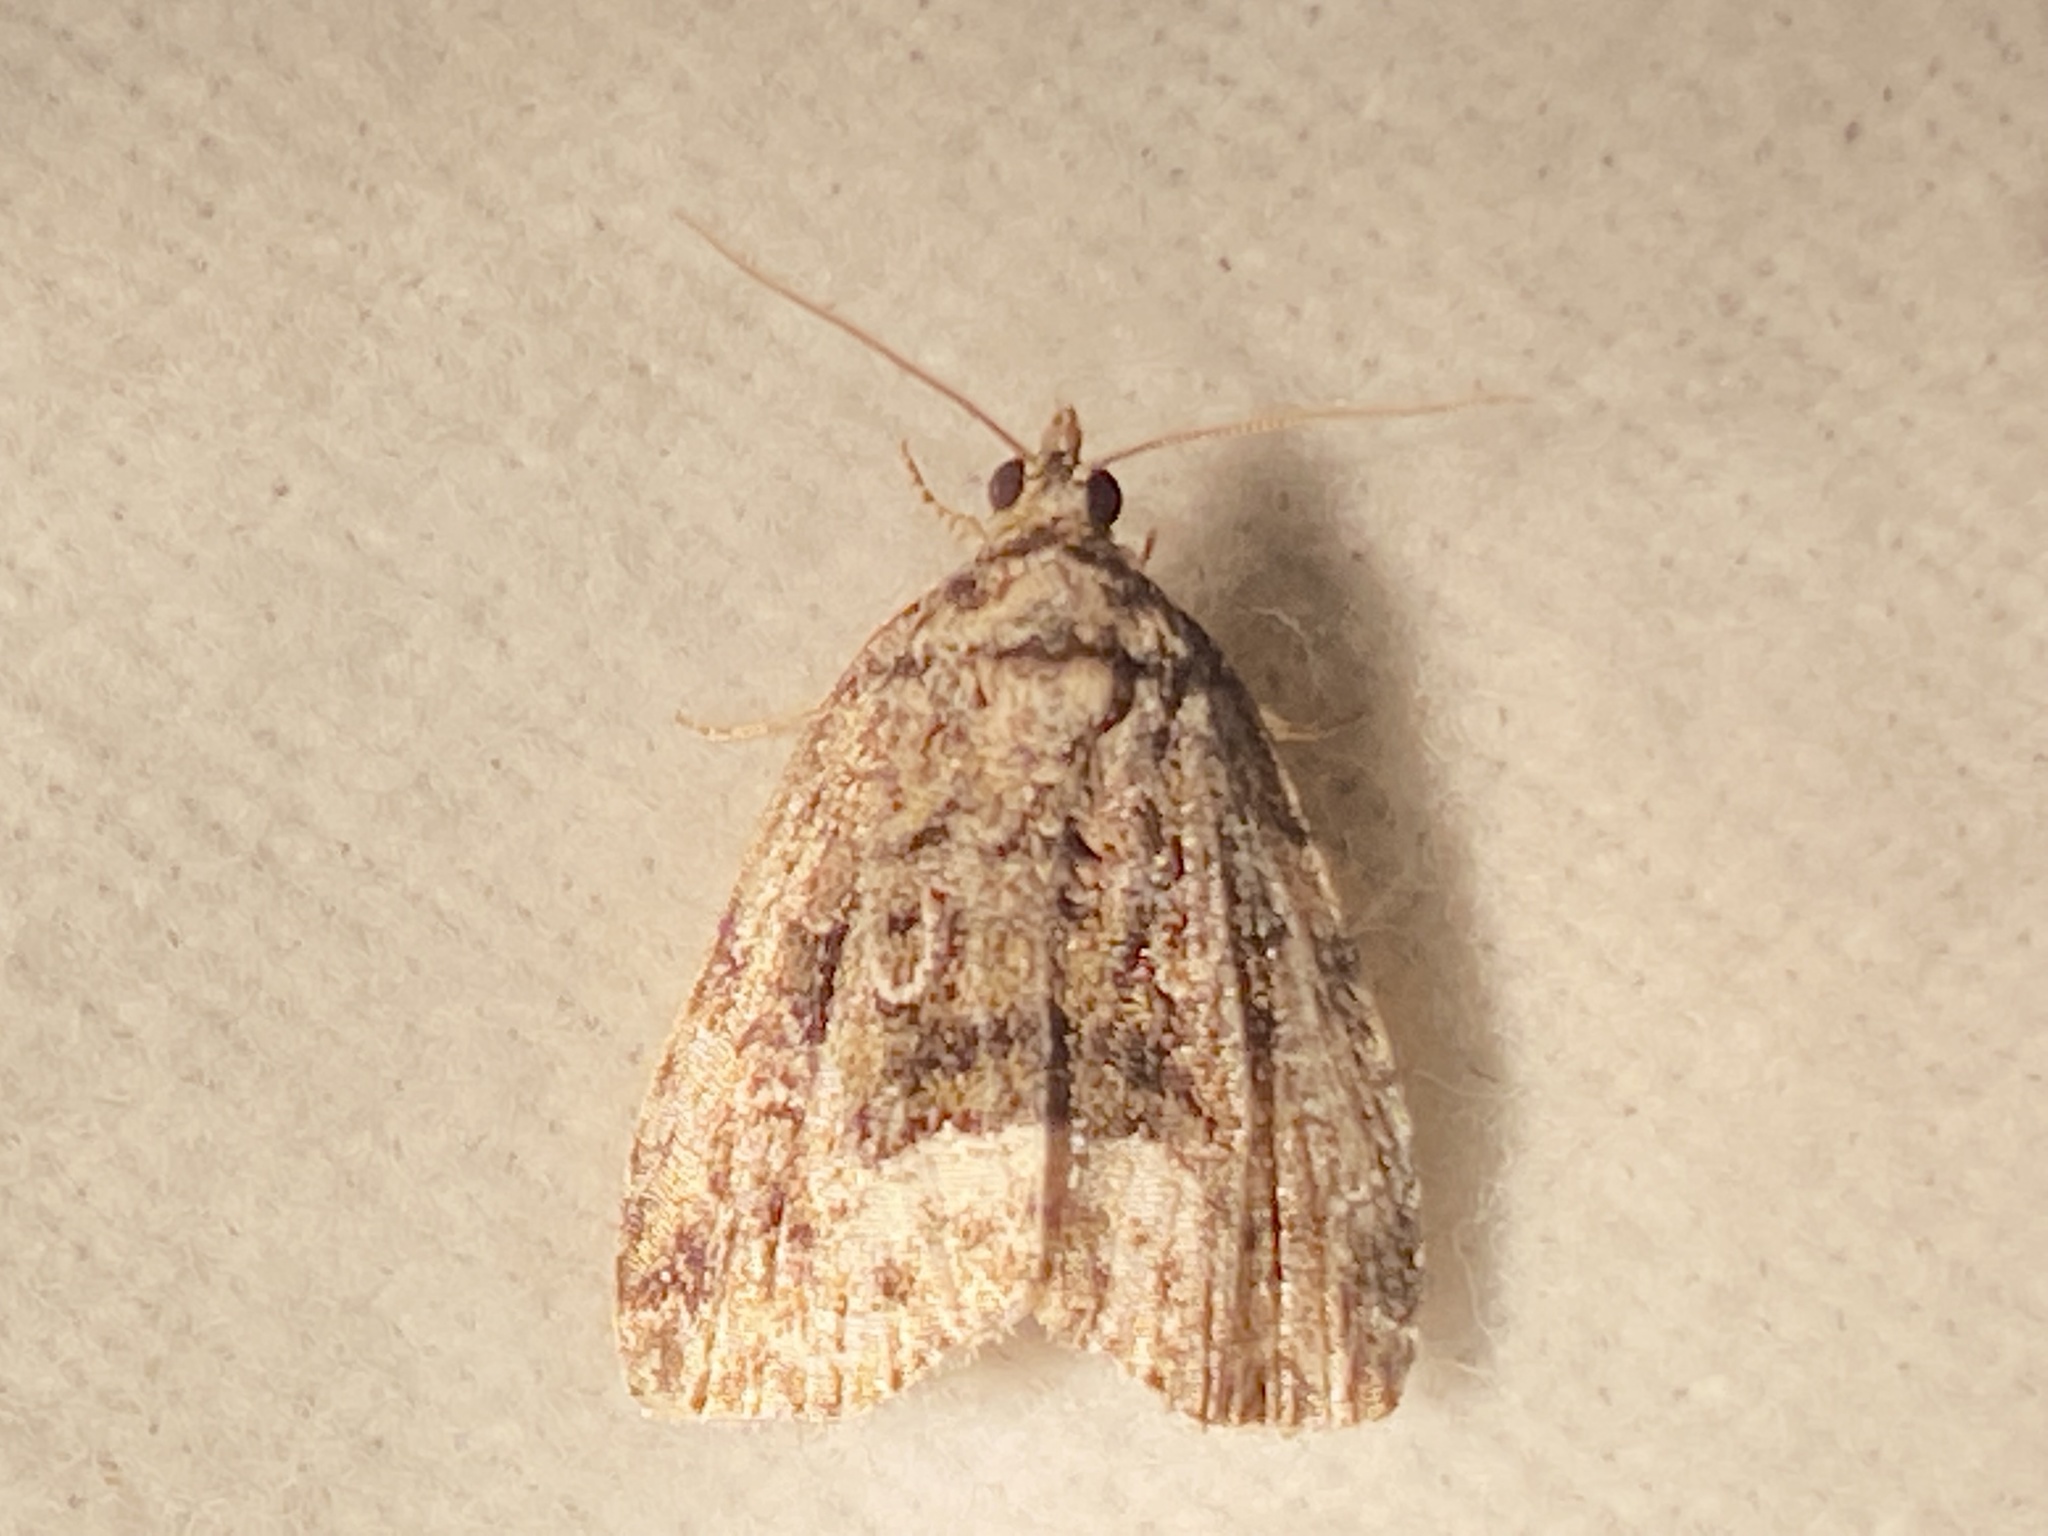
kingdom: Animalia
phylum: Arthropoda
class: Insecta
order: Lepidoptera
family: Noctuidae
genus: Protodeltote
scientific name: Protodeltote muscosula
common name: Large mossy glyph
